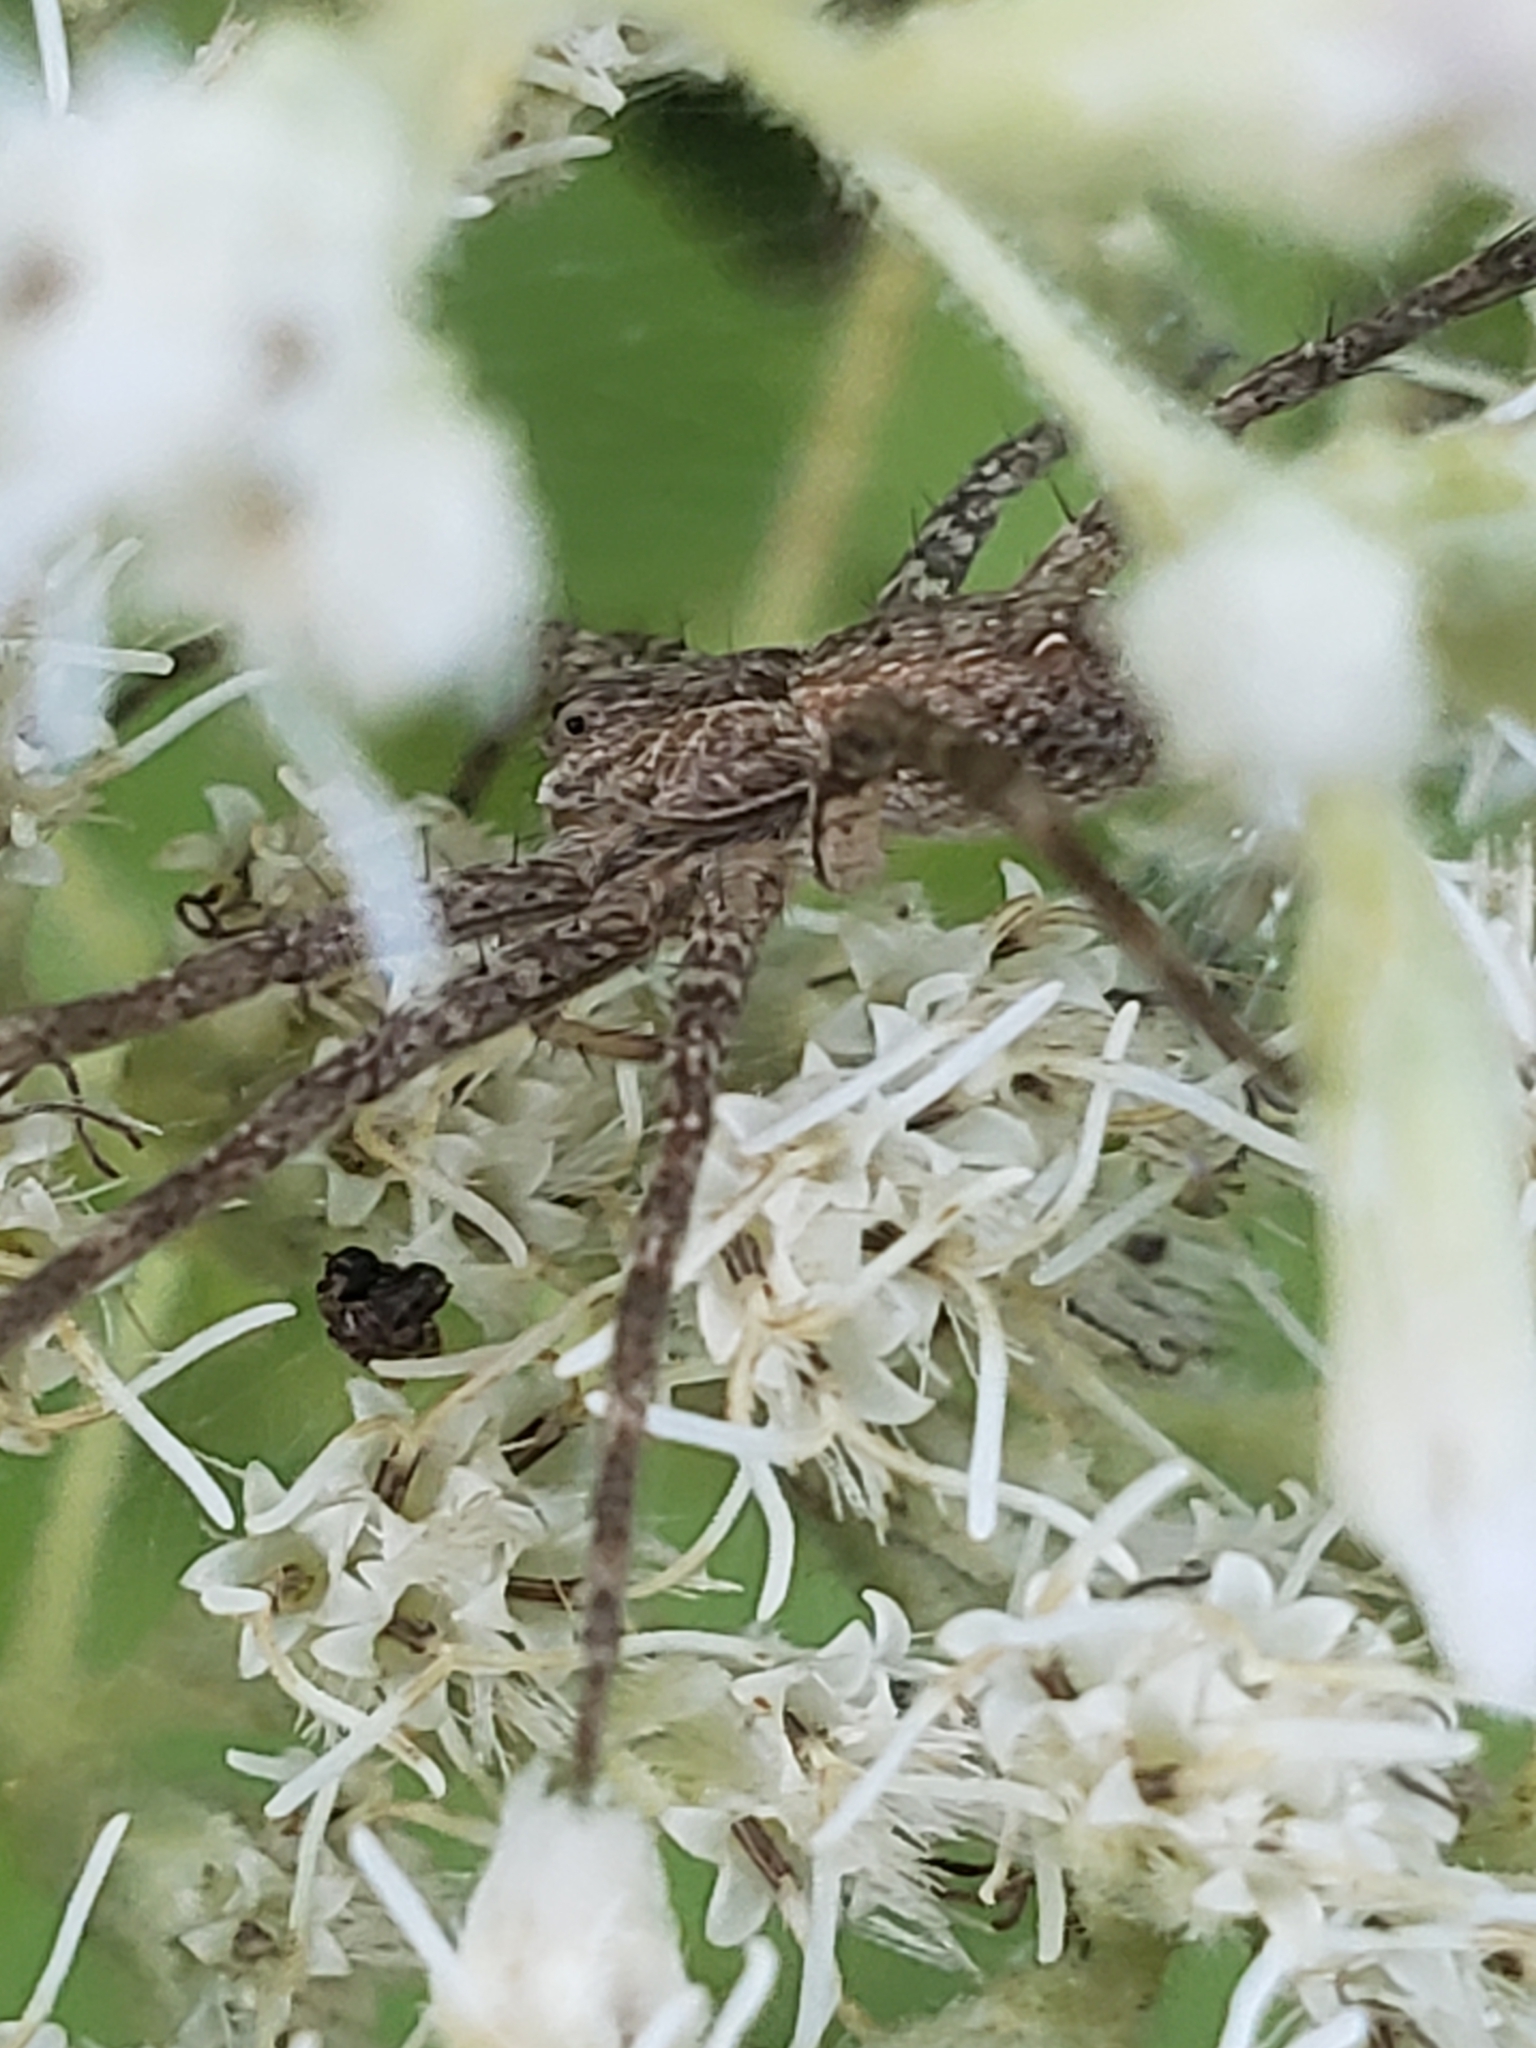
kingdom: Animalia
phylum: Arthropoda
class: Arachnida
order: Araneae
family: Pisauridae
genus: Pisaurina
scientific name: Pisaurina mira
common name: American nursery web spider
